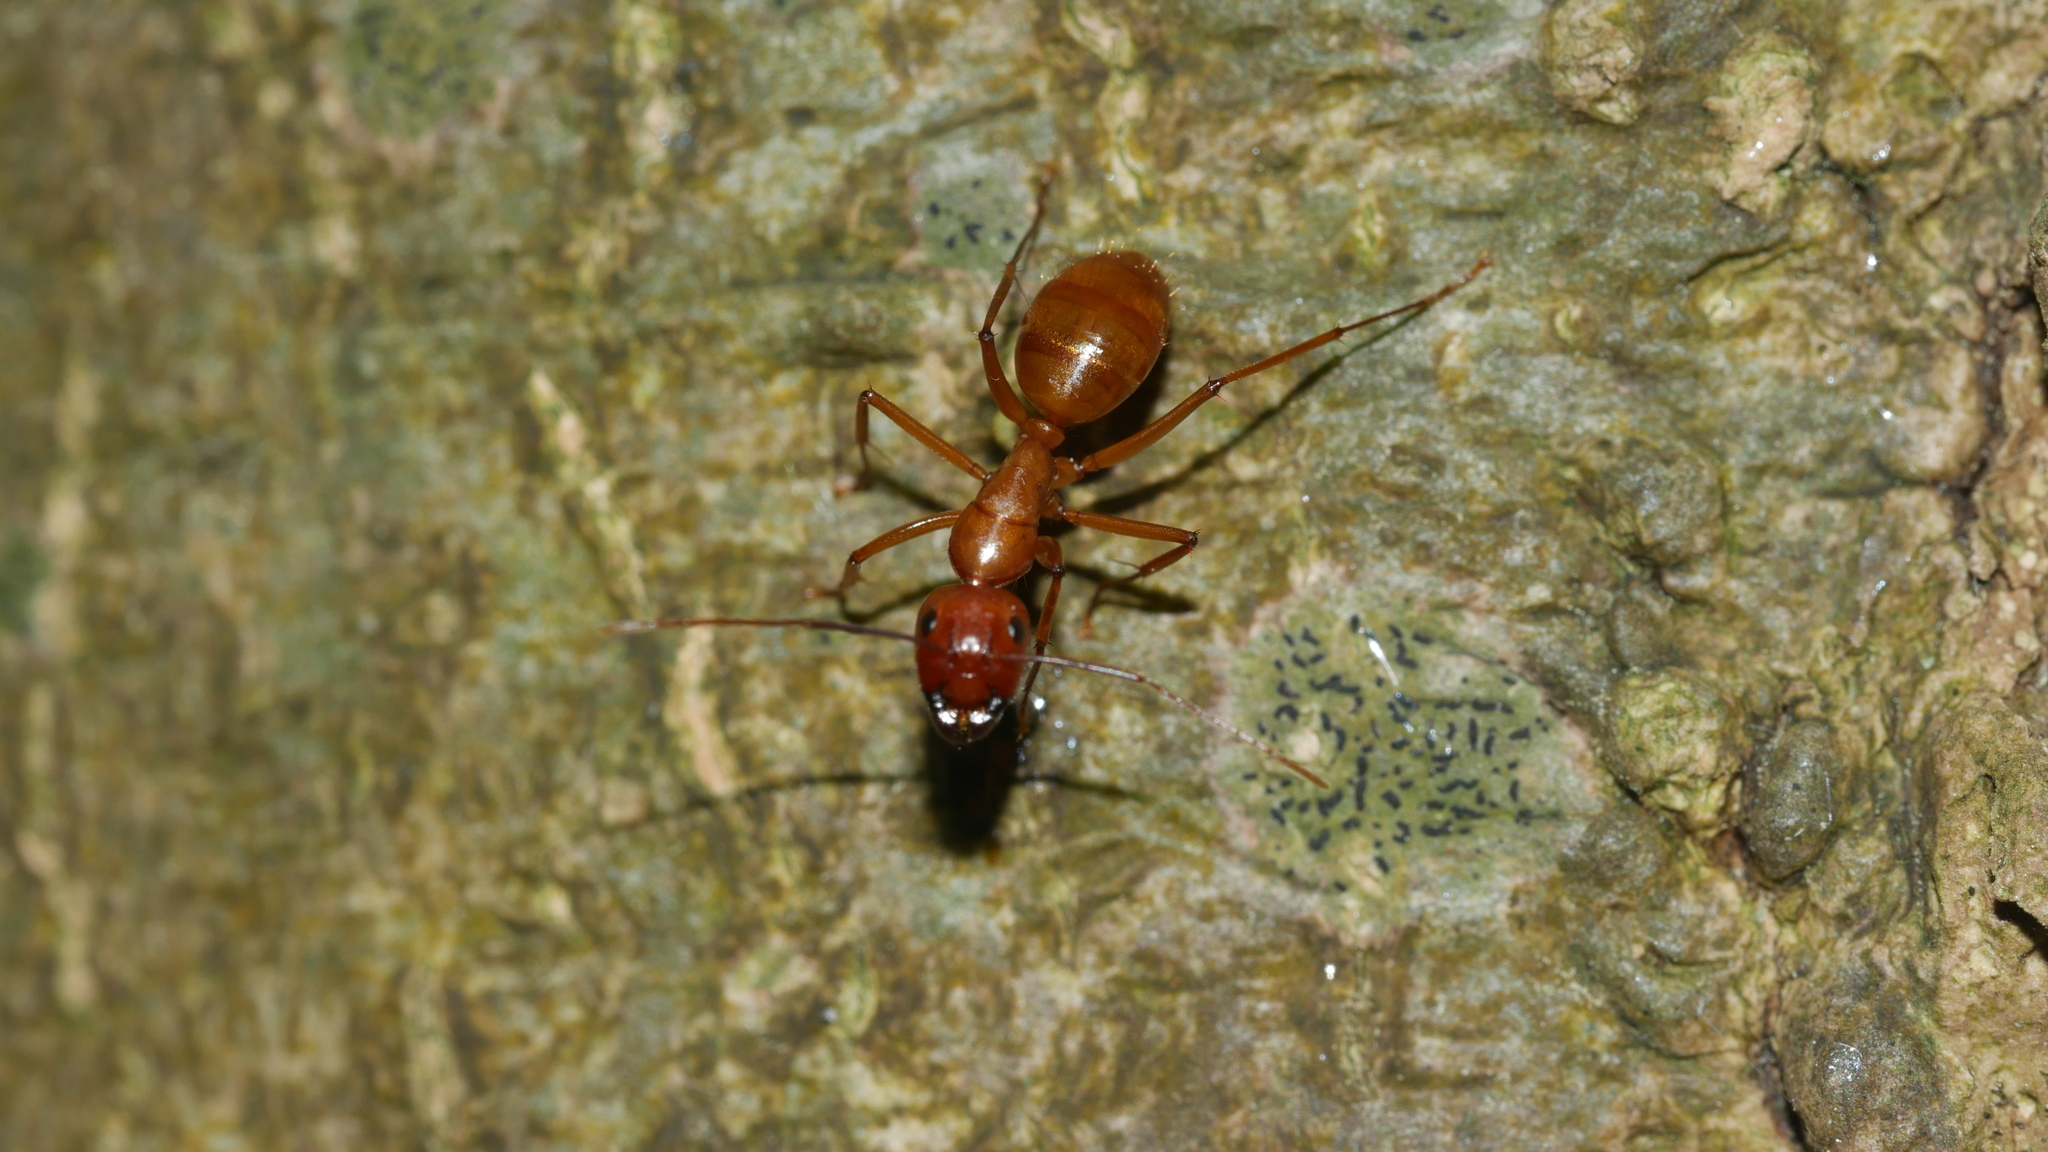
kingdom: Animalia
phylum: Arthropoda
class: Insecta
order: Hymenoptera
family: Formicidae
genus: Camponotus
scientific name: Camponotus castaneus
